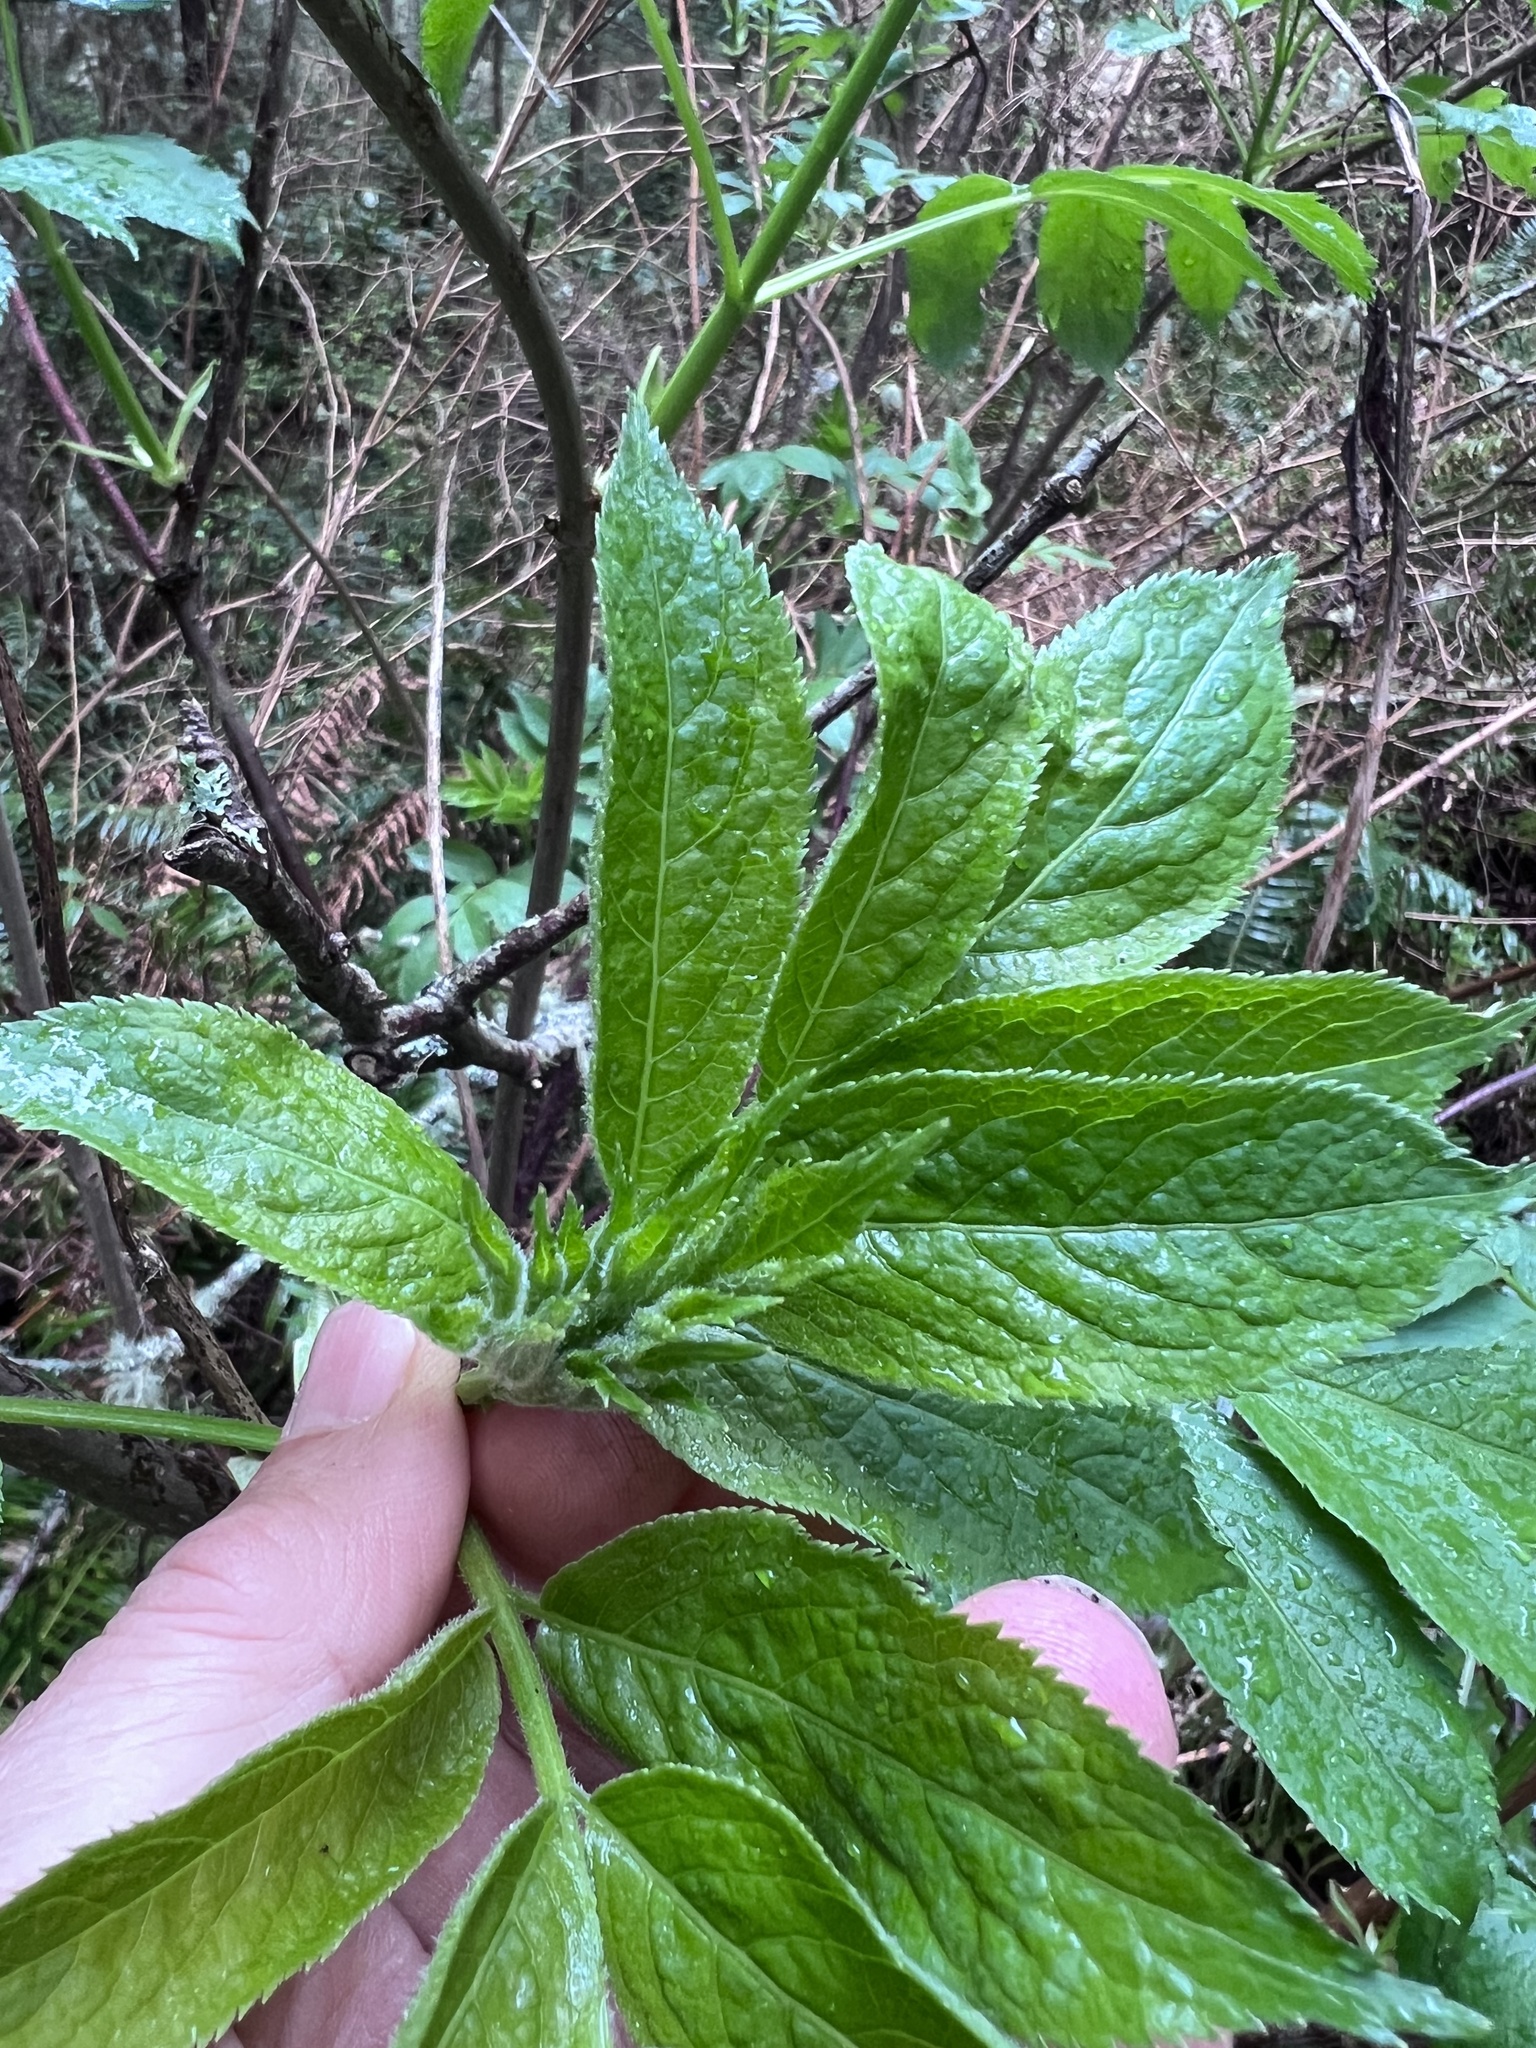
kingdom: Plantae
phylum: Tracheophyta
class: Magnoliopsida
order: Dipsacales
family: Viburnaceae
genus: Sambucus
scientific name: Sambucus racemosa
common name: Red-berried elder
